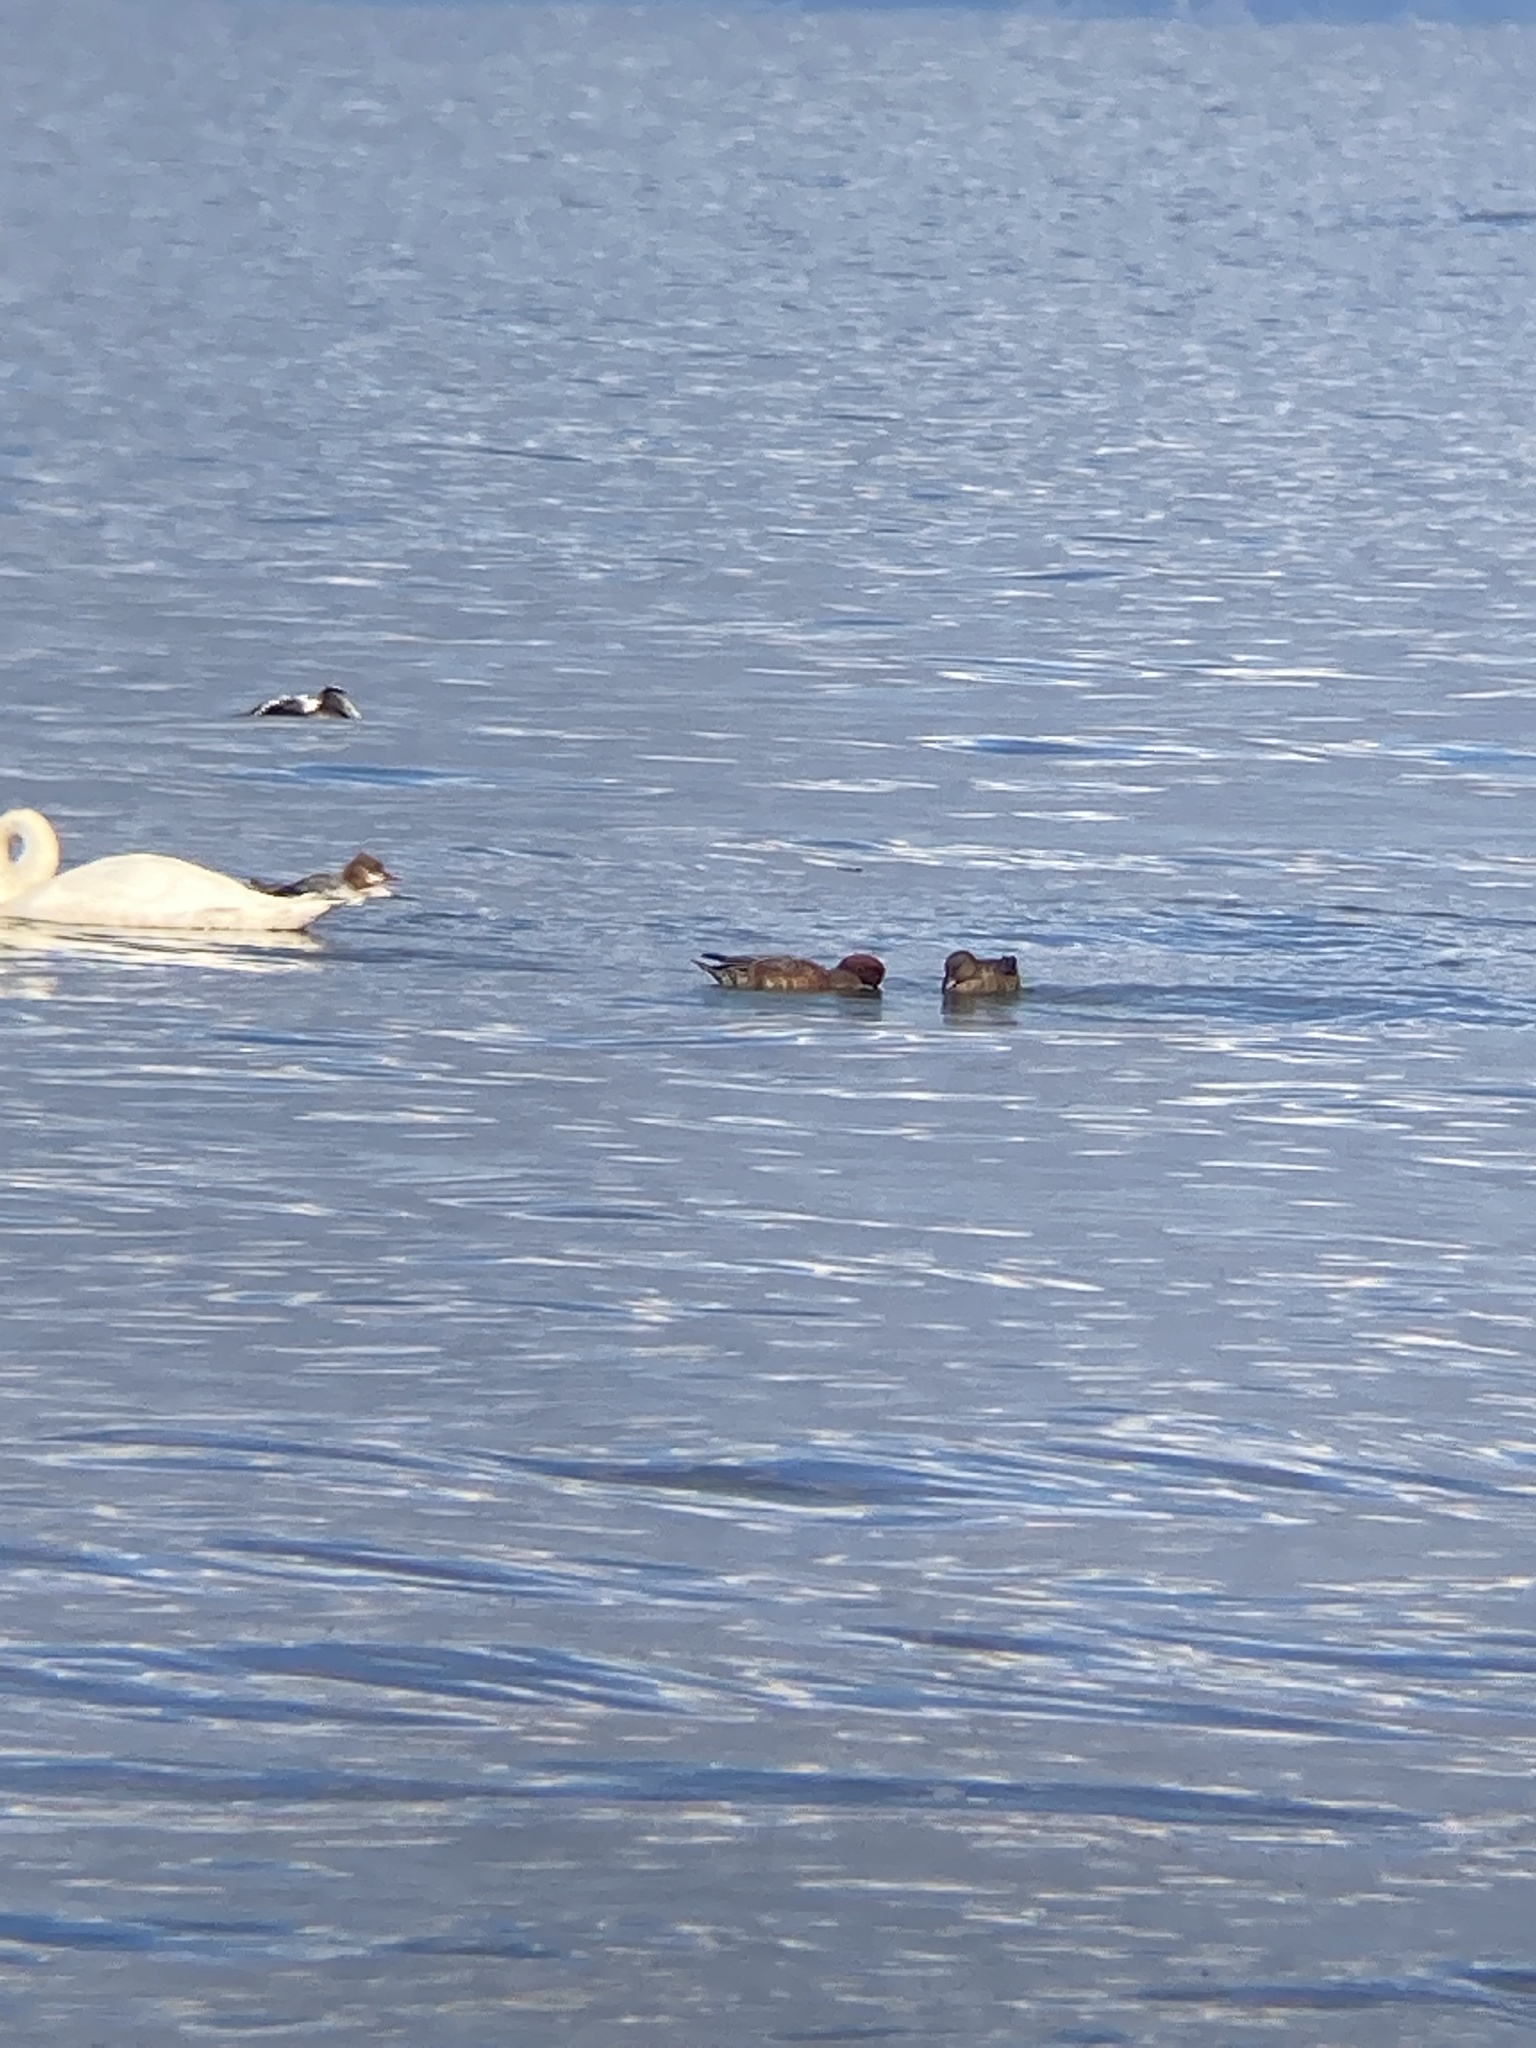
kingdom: Animalia
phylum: Chordata
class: Aves
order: Anseriformes
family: Anatidae
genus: Mareca
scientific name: Mareca penelope
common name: Eurasian wigeon
